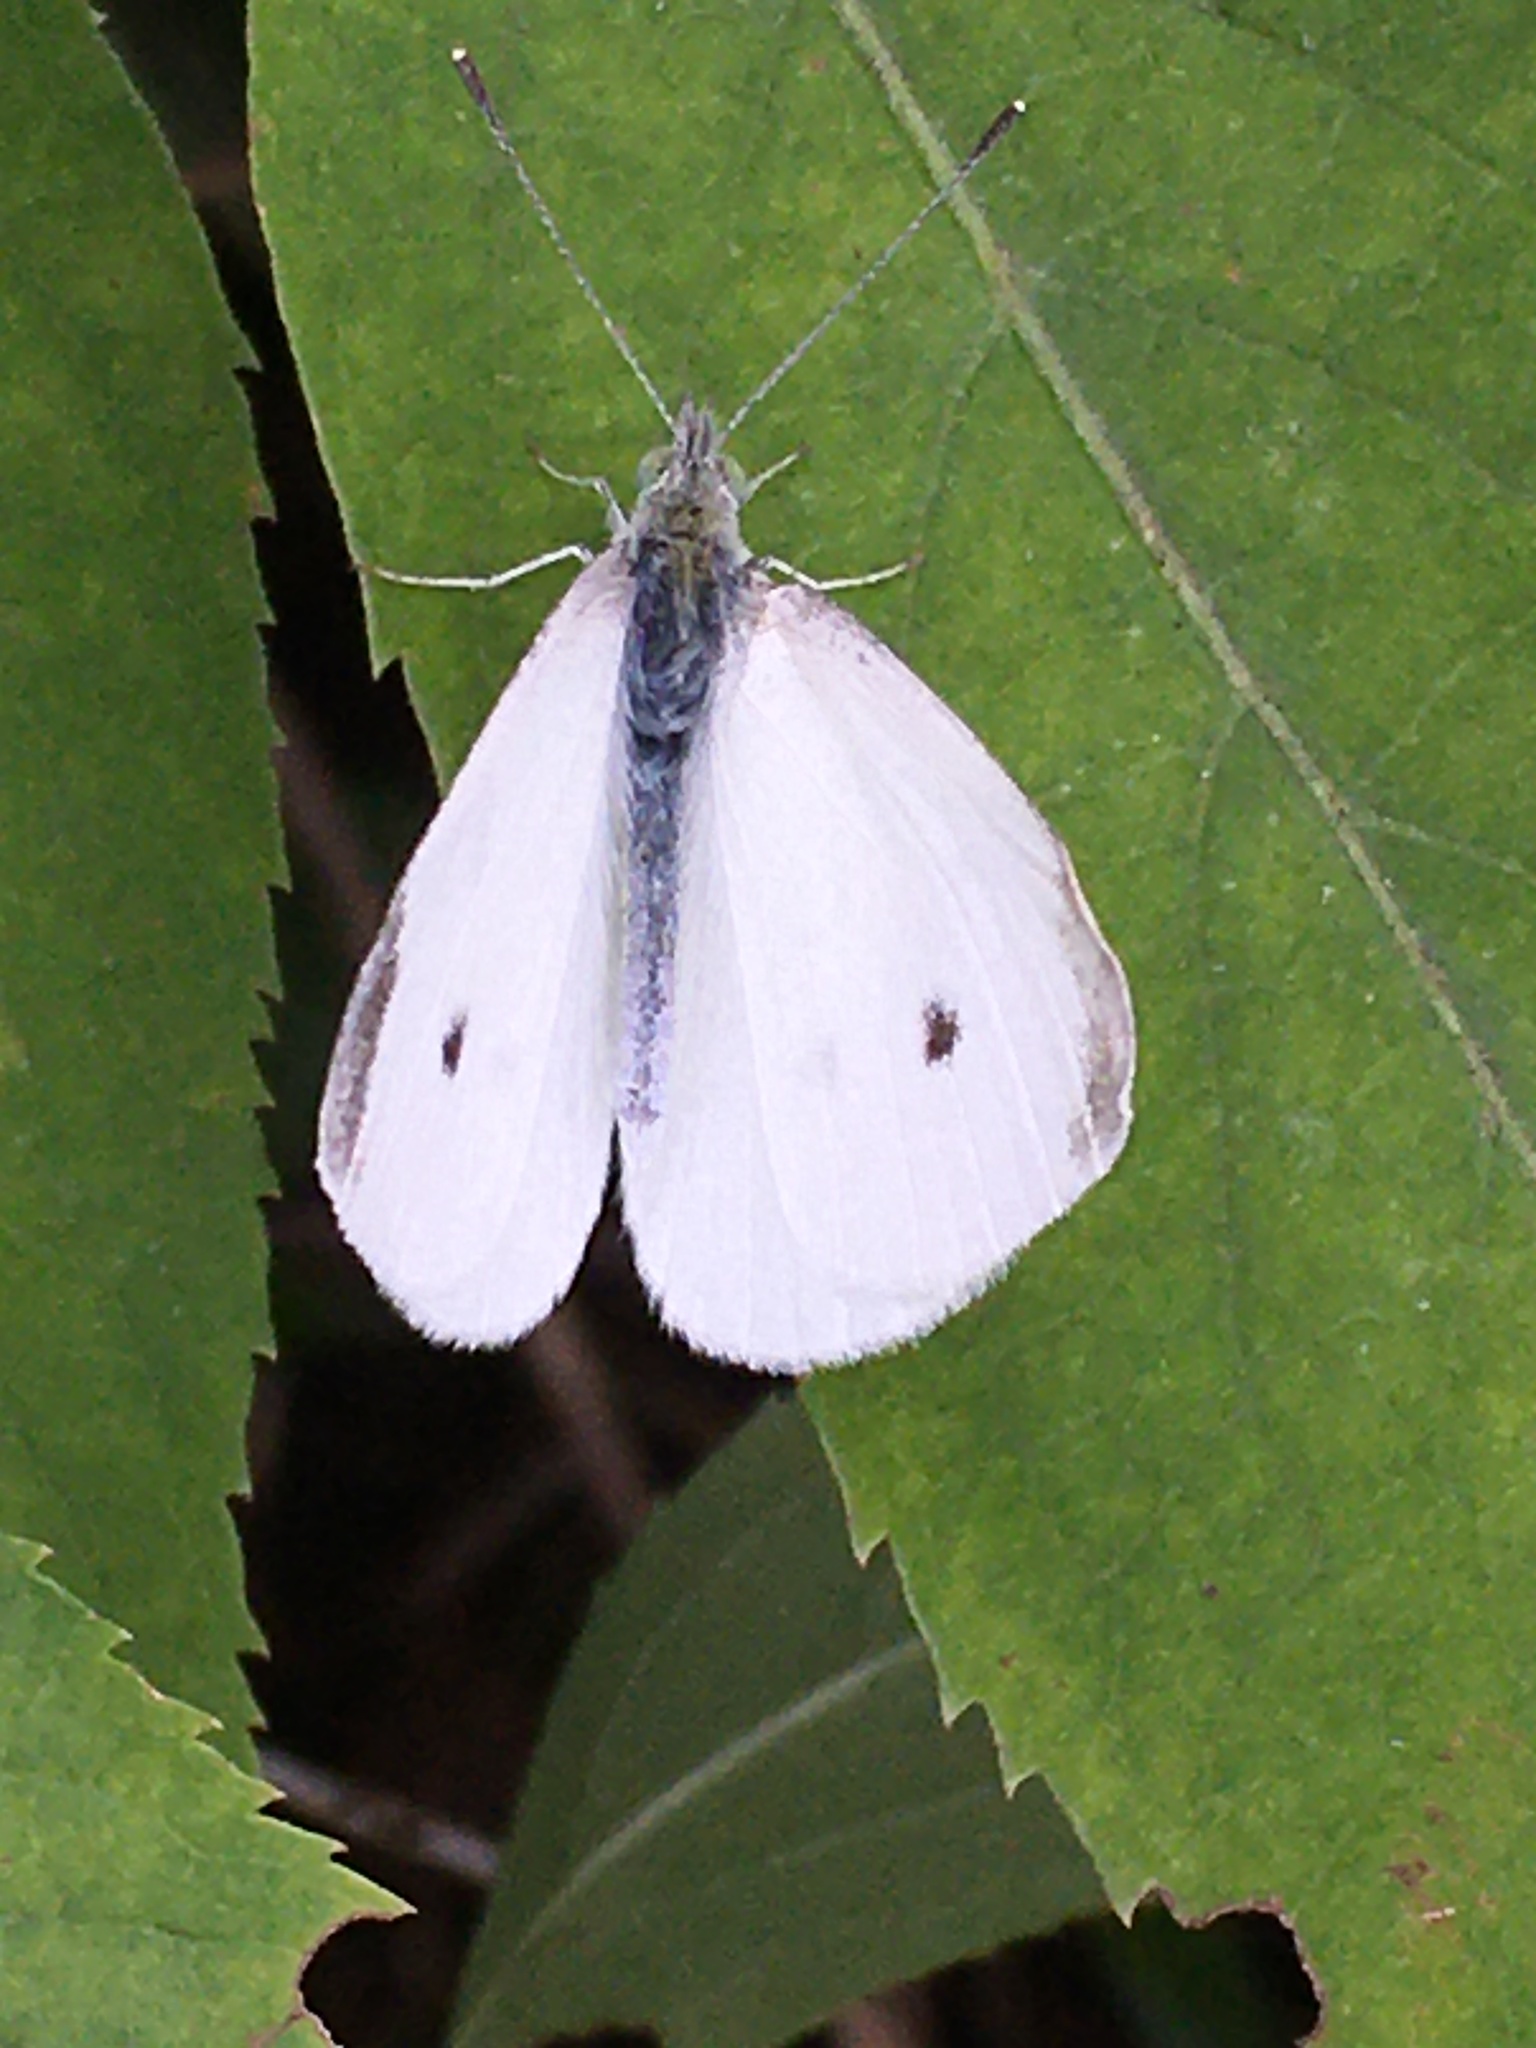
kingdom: Animalia
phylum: Arthropoda
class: Insecta
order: Lepidoptera
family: Pieridae
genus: Pieris
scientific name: Pieris rapae
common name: Small white
